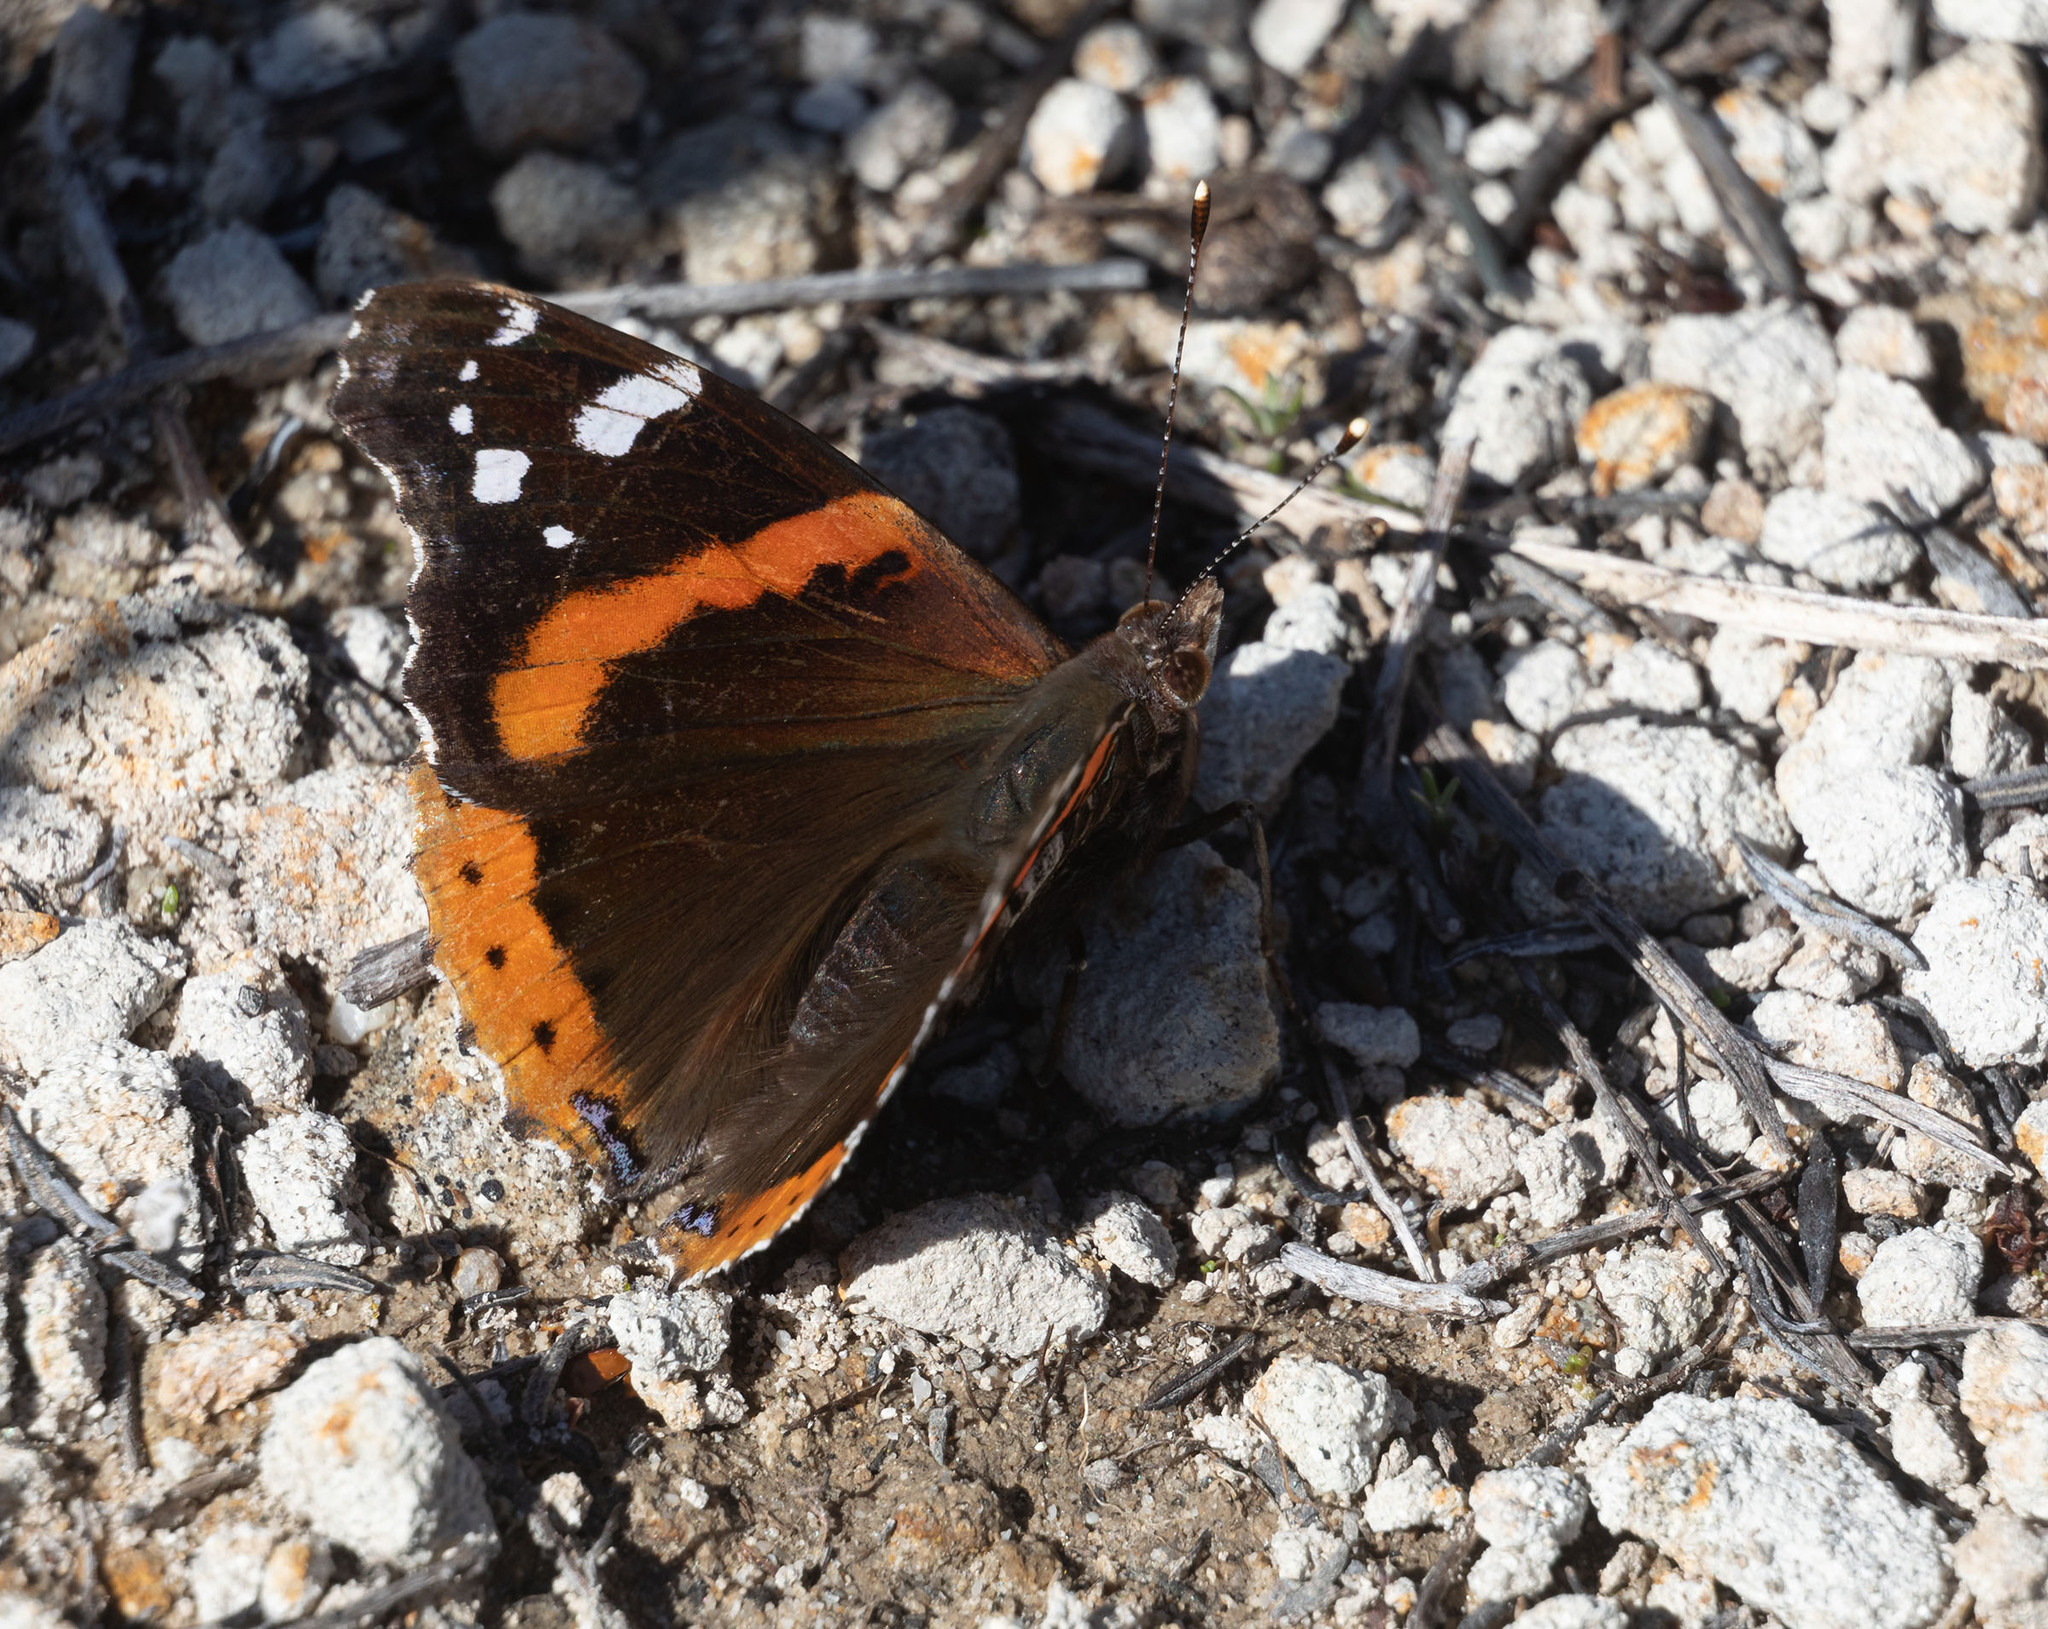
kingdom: Animalia
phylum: Arthropoda
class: Insecta
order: Lepidoptera
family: Nymphalidae
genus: Vanessa
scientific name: Vanessa atalanta
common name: Red admiral
